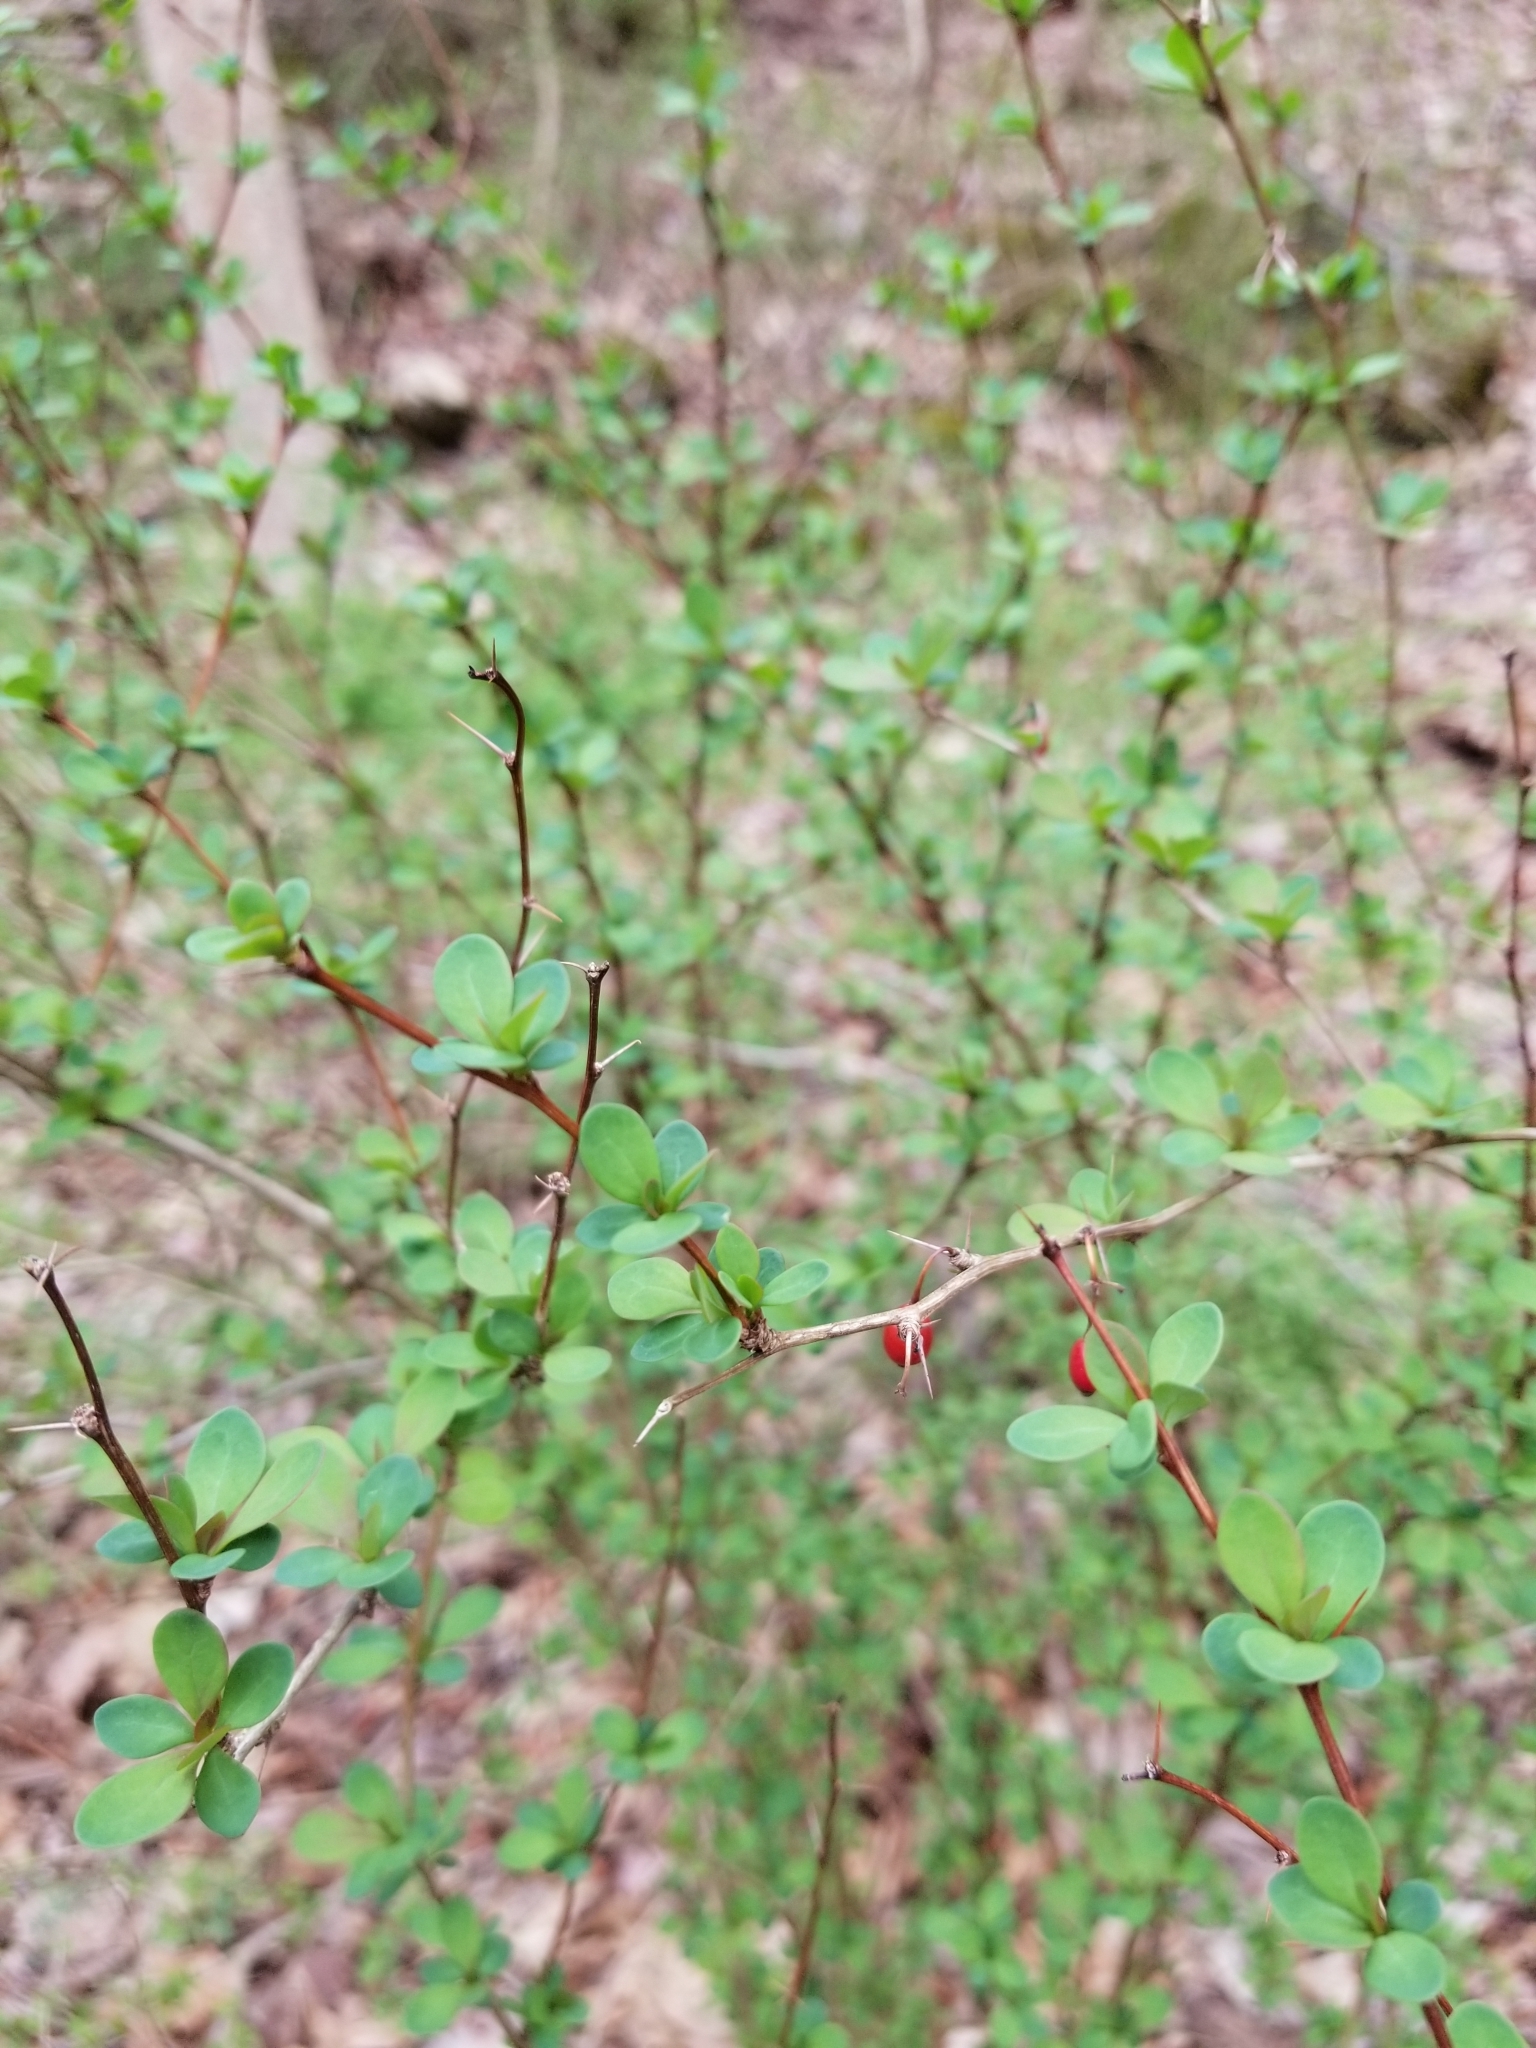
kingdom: Plantae
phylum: Tracheophyta
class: Magnoliopsida
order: Ranunculales
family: Berberidaceae
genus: Berberis
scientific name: Berberis thunbergii
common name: Japanese barberry
